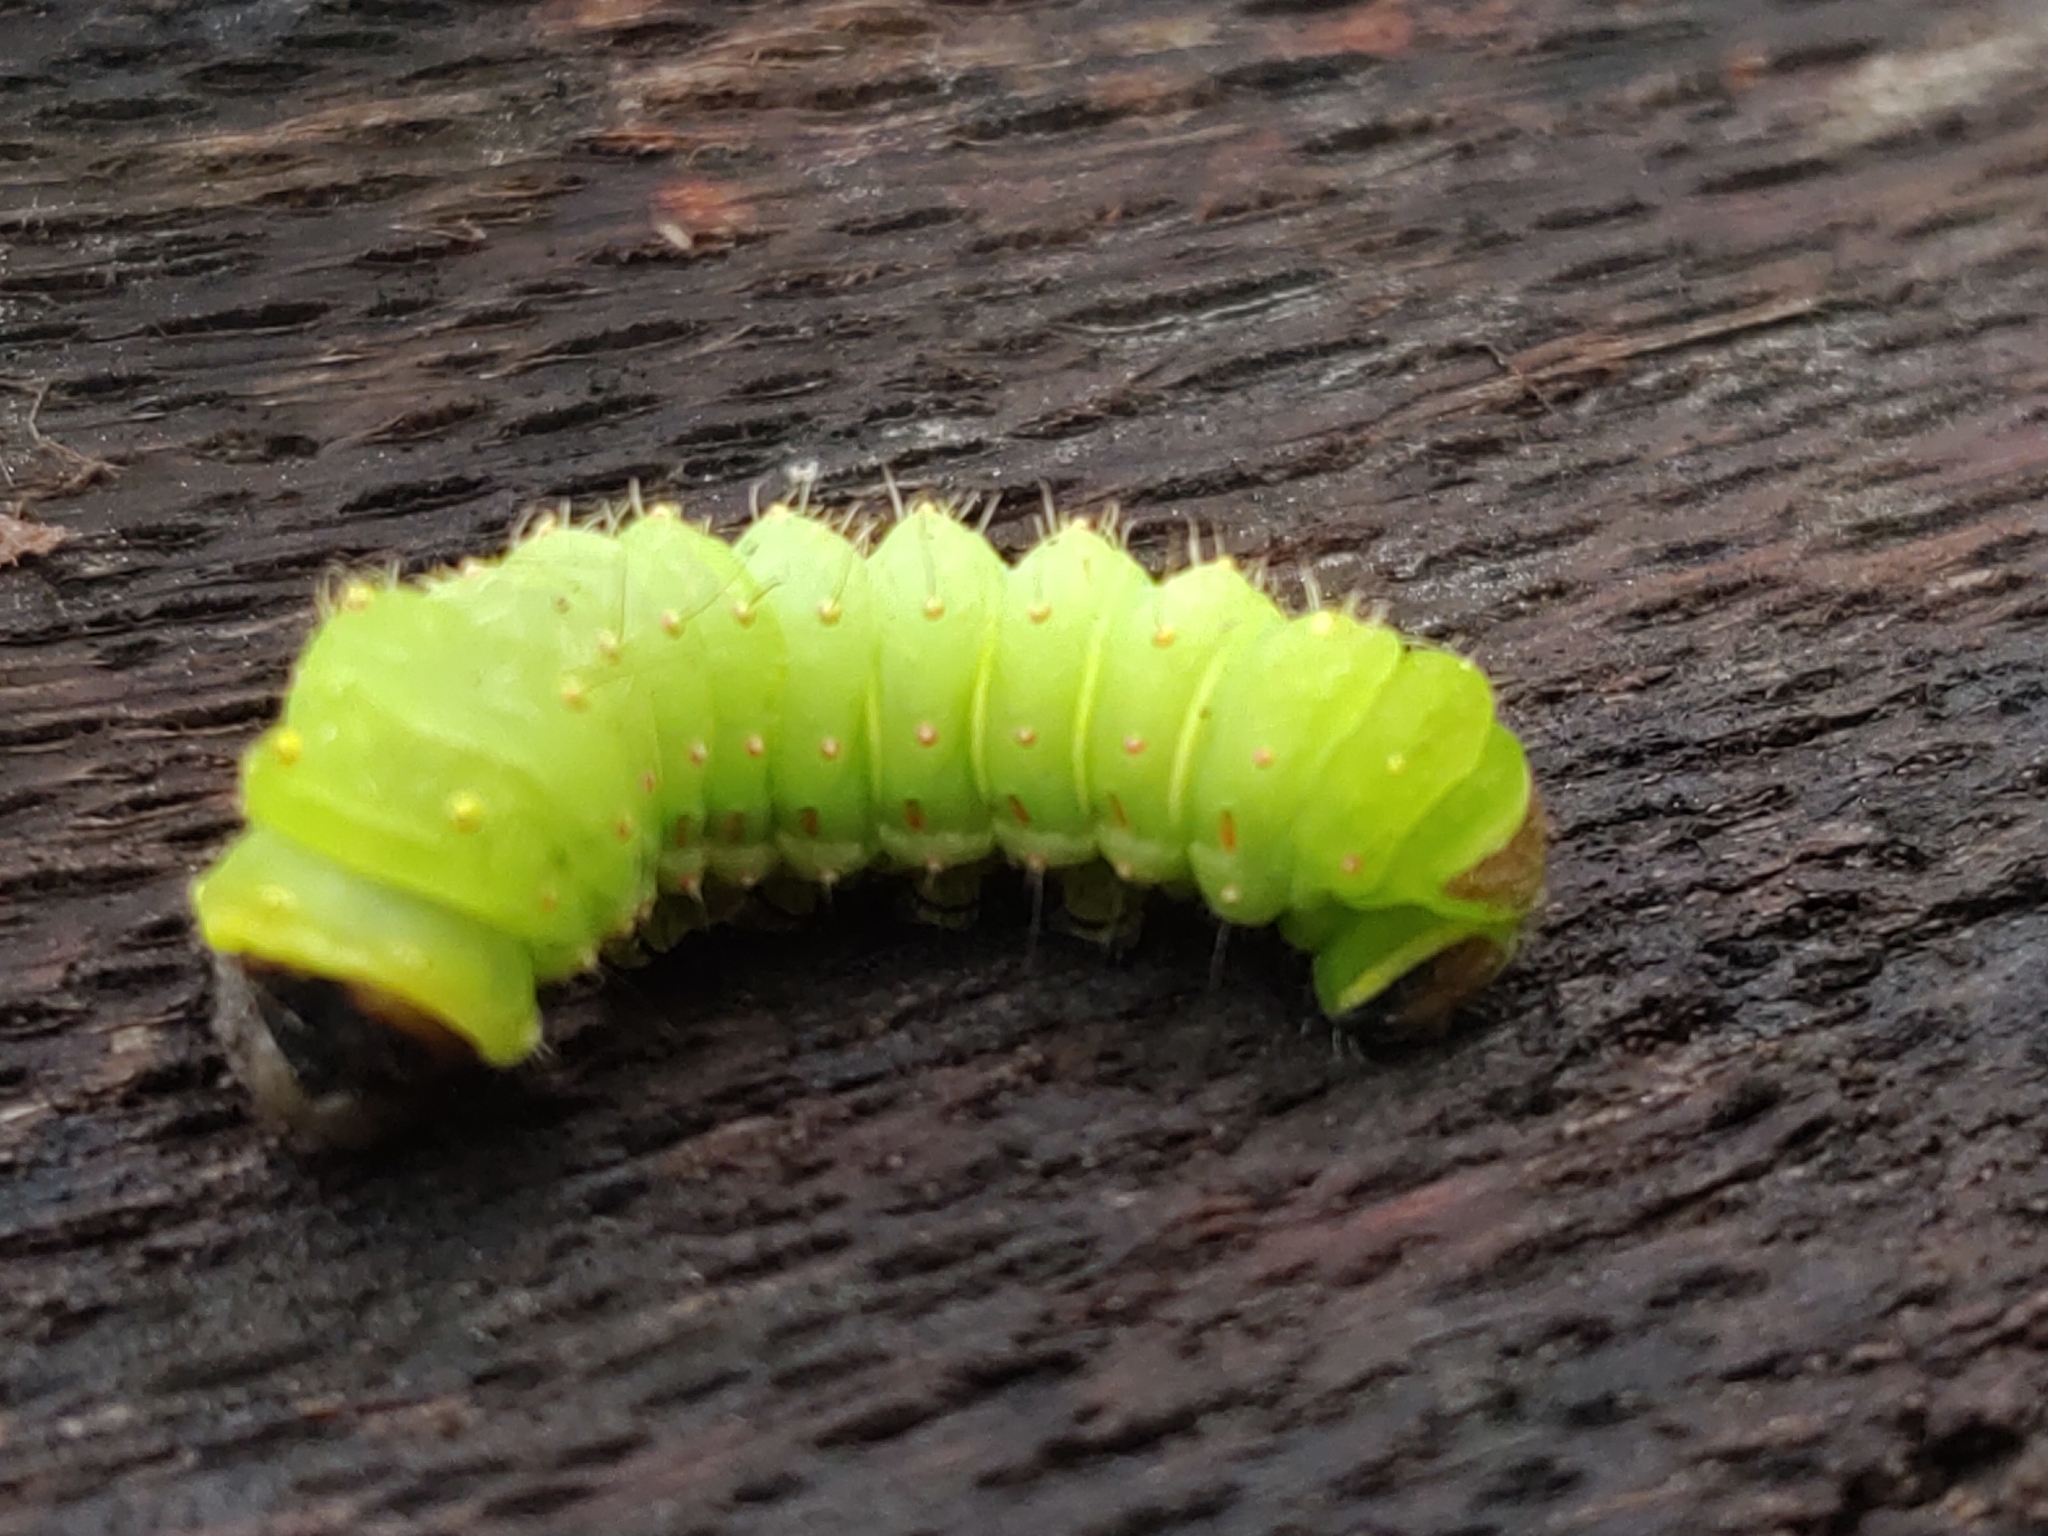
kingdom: Animalia
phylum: Arthropoda
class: Insecta
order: Lepidoptera
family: Saturniidae
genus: Actias
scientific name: Actias luna
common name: Luna moth
